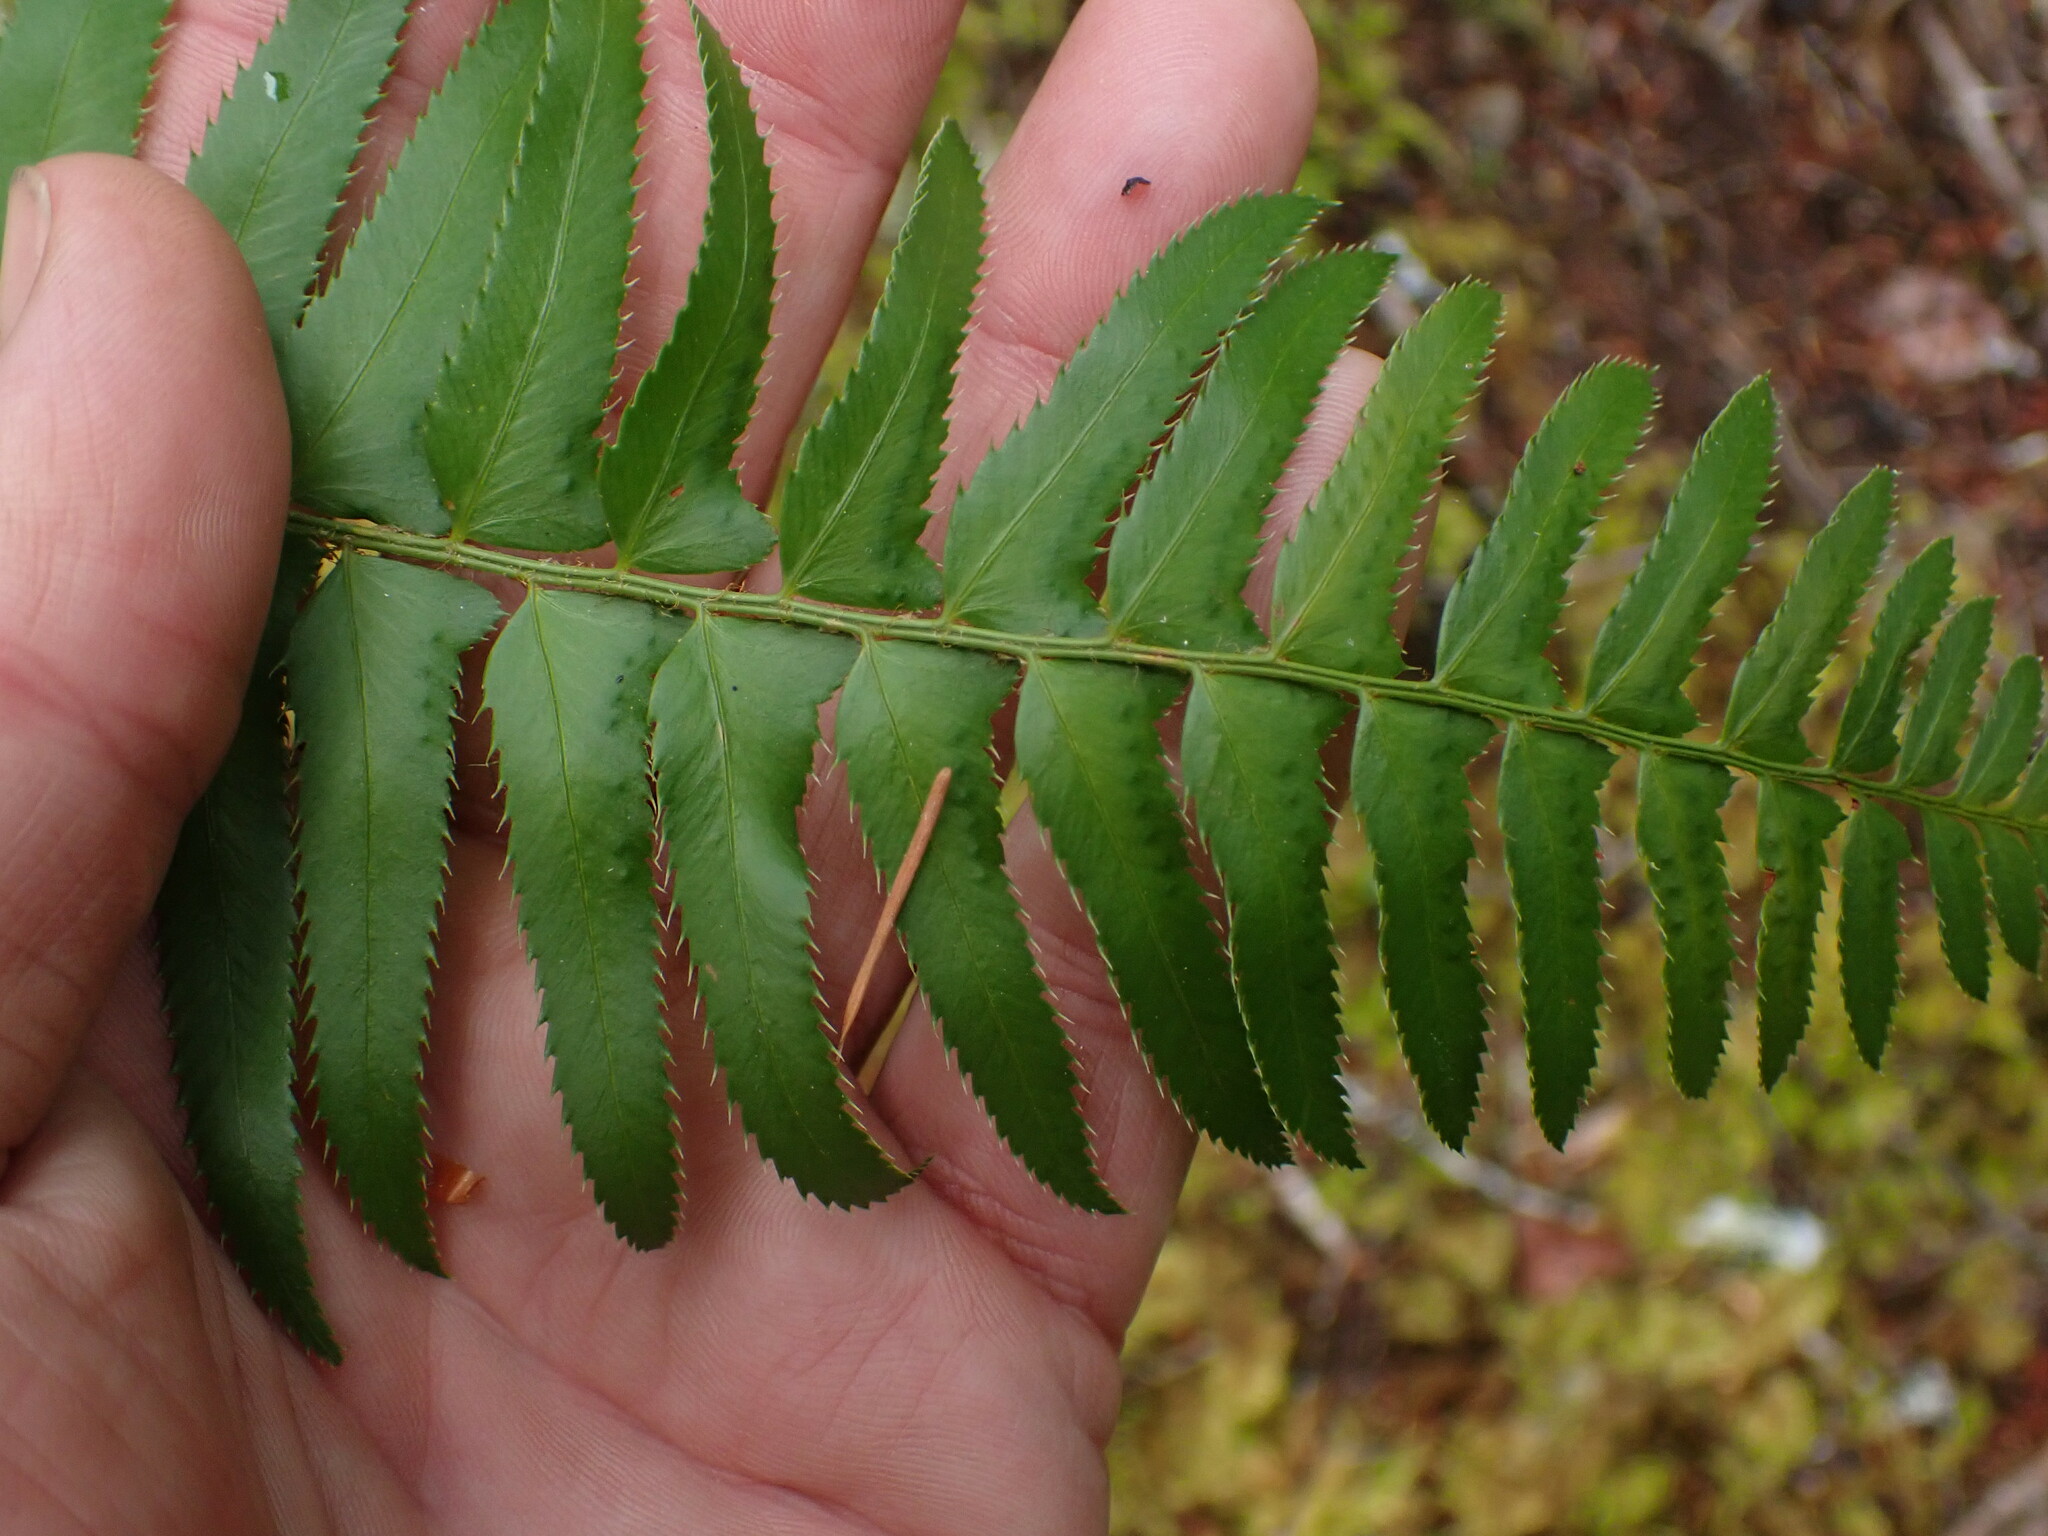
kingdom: Plantae
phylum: Tracheophyta
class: Polypodiopsida
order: Polypodiales
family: Dryopteridaceae
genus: Polystichum
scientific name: Polystichum munitum
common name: Western sword-fern
